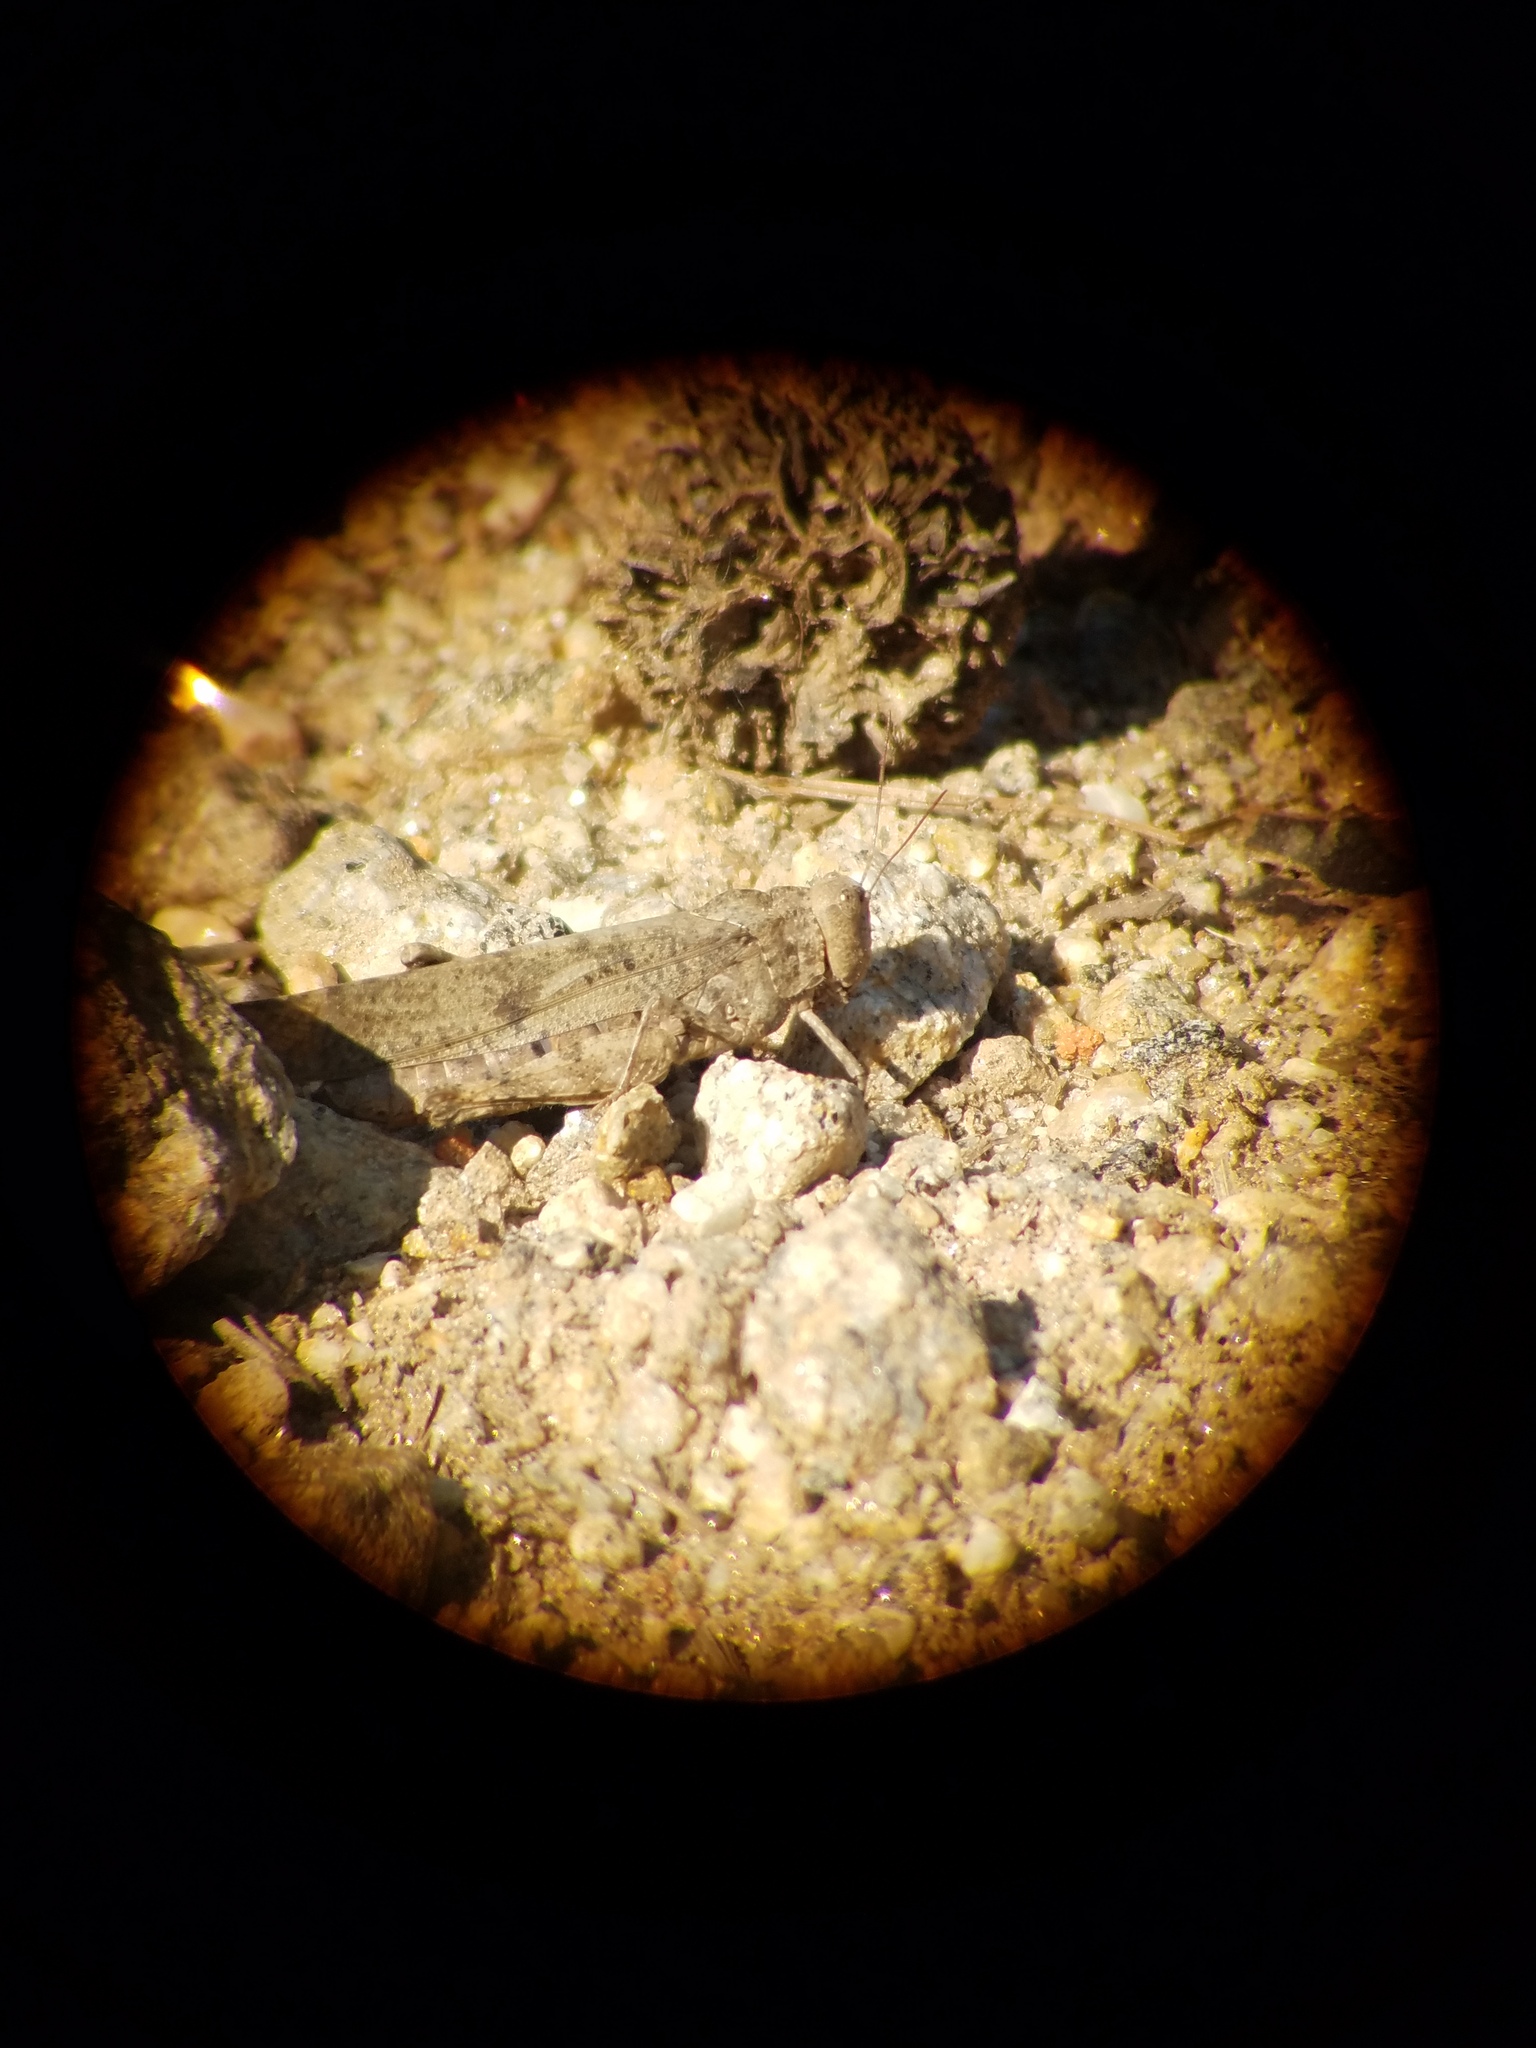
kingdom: Animalia
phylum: Arthropoda
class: Insecta
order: Orthoptera
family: Acrididae
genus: Dissosteira
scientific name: Dissosteira carolina
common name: Carolina grasshopper
